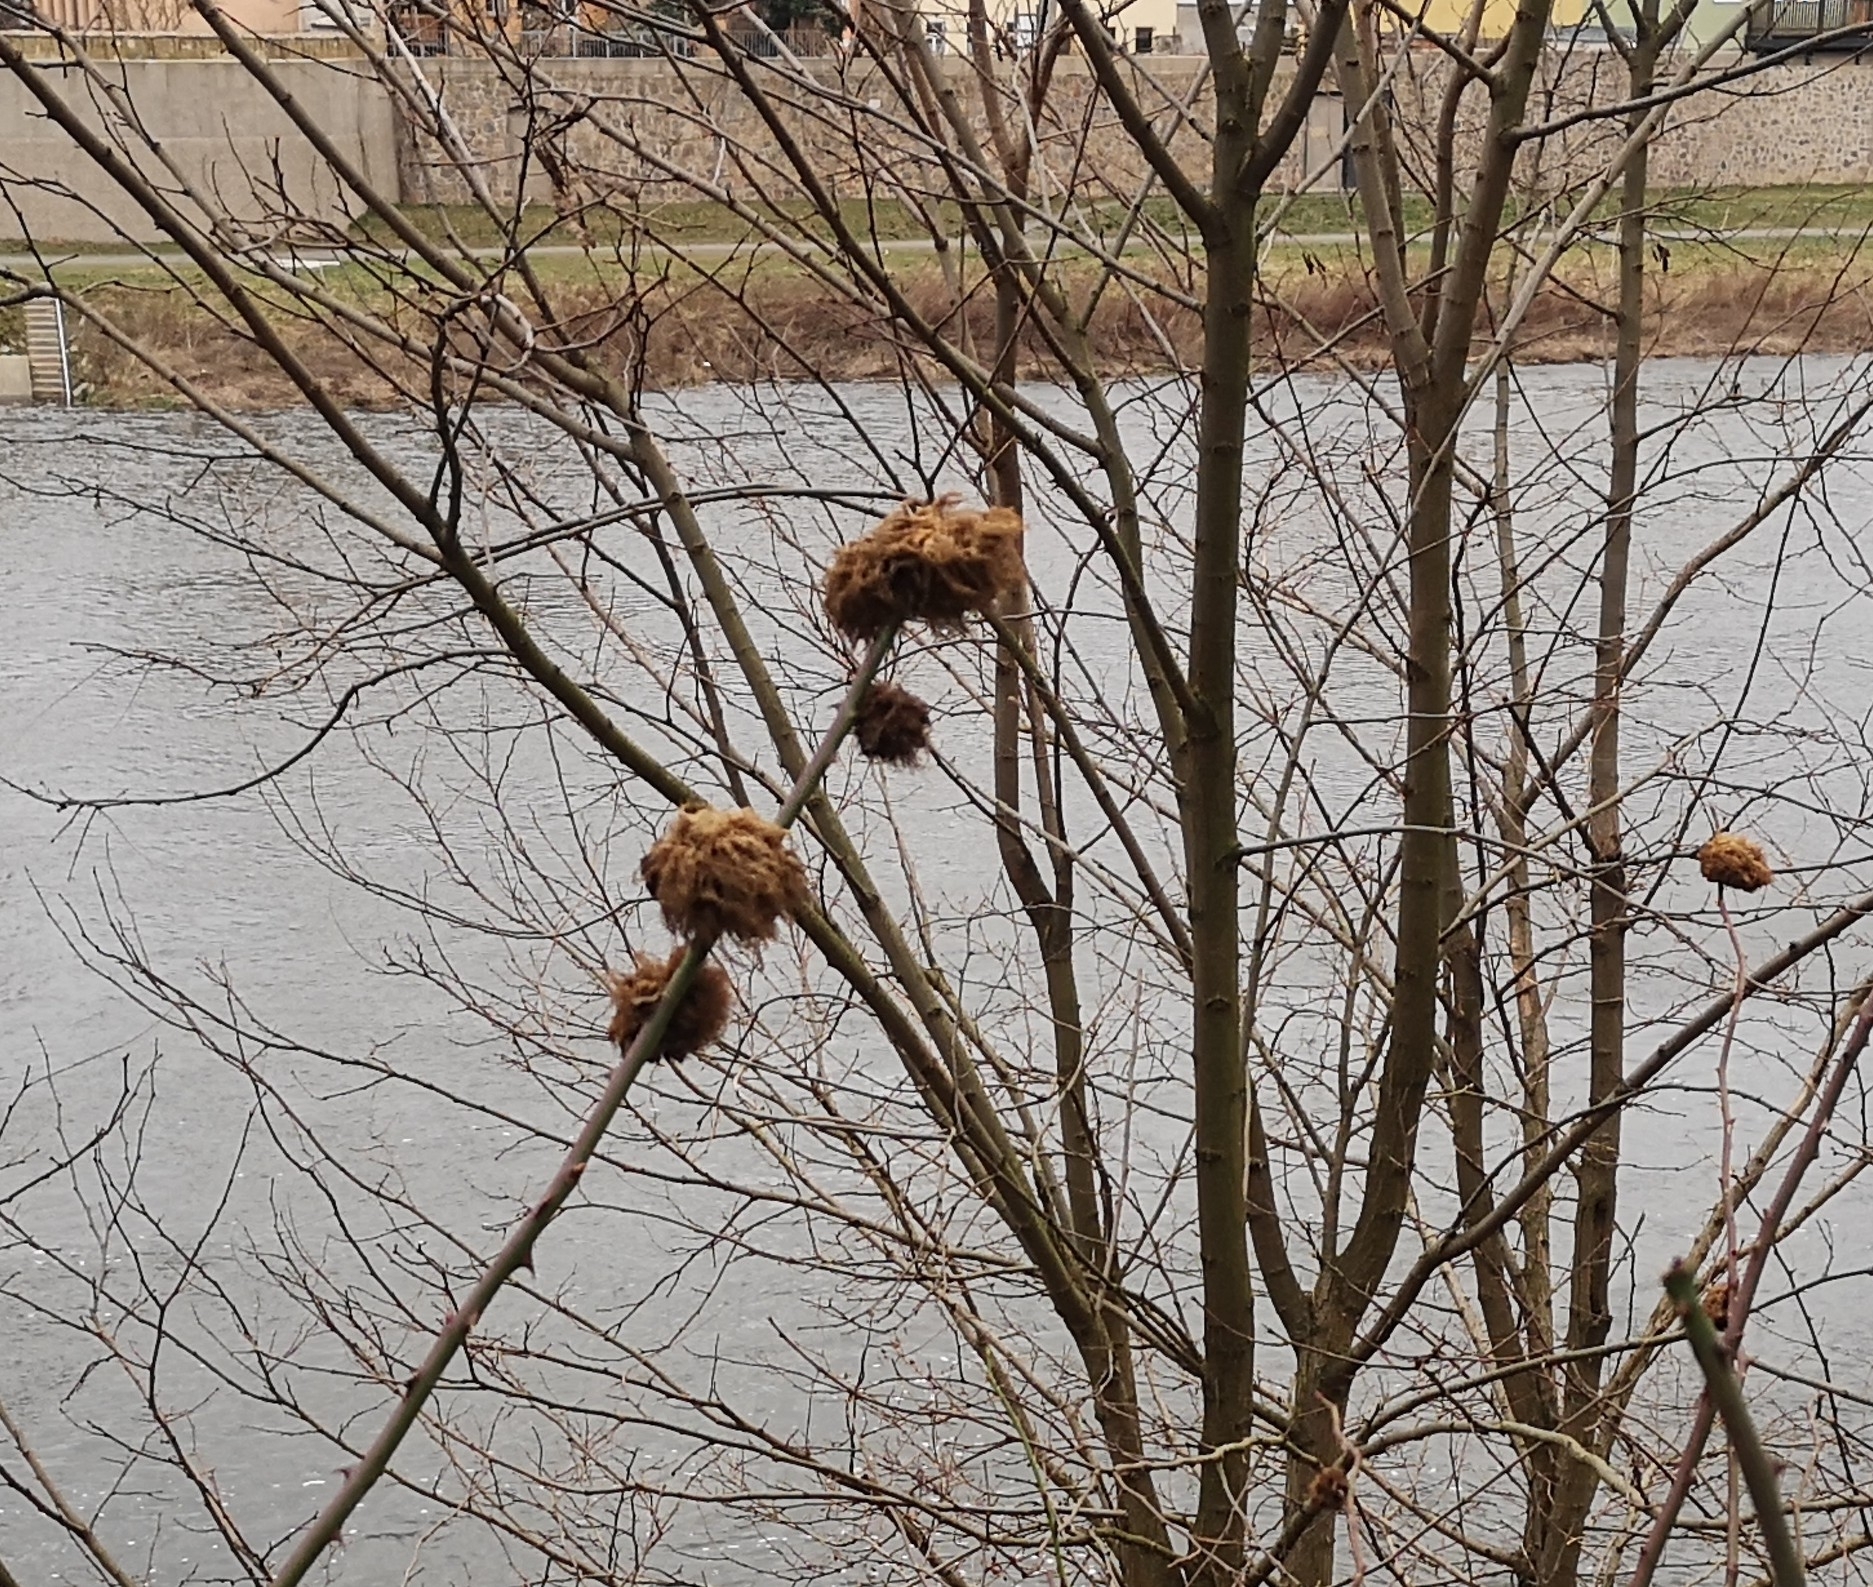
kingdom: Animalia
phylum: Arthropoda
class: Insecta
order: Hymenoptera
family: Cynipidae
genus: Diplolepis
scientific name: Diplolepis rosae
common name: Bedeguar gall
